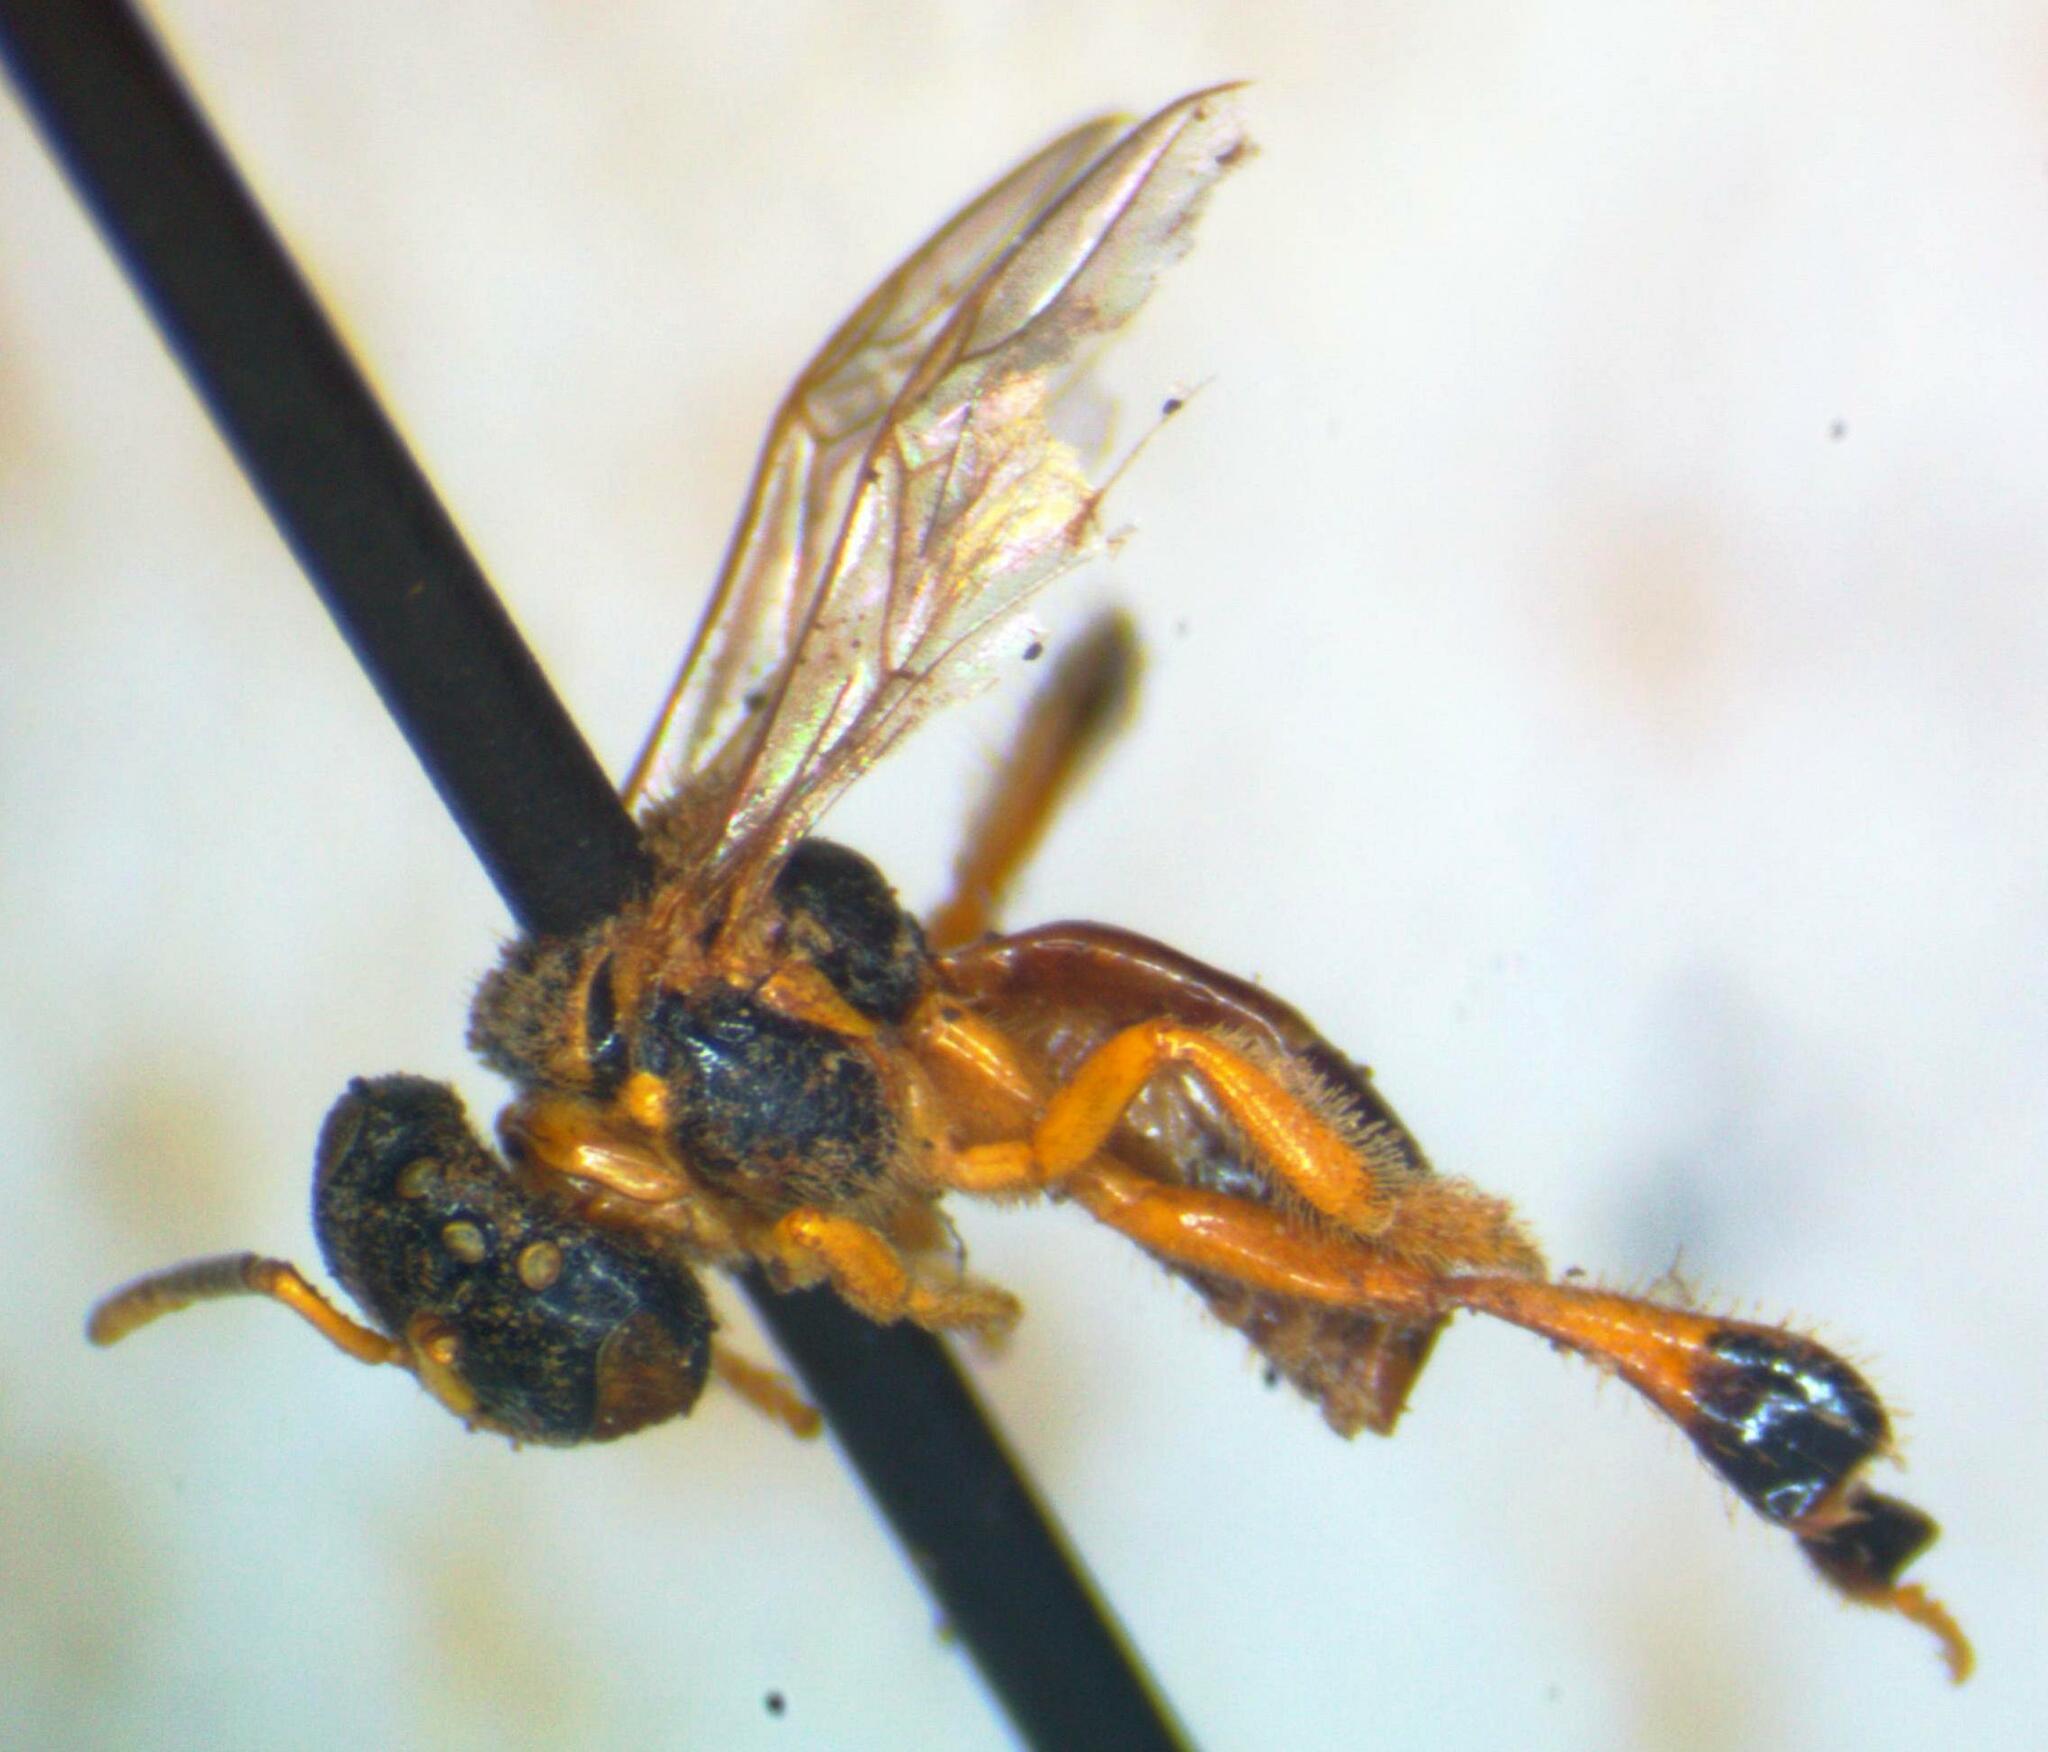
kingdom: Animalia
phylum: Arthropoda
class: Insecta
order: Hymenoptera
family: Apidae
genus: Tetragonisca
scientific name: Tetragonisca angustula
